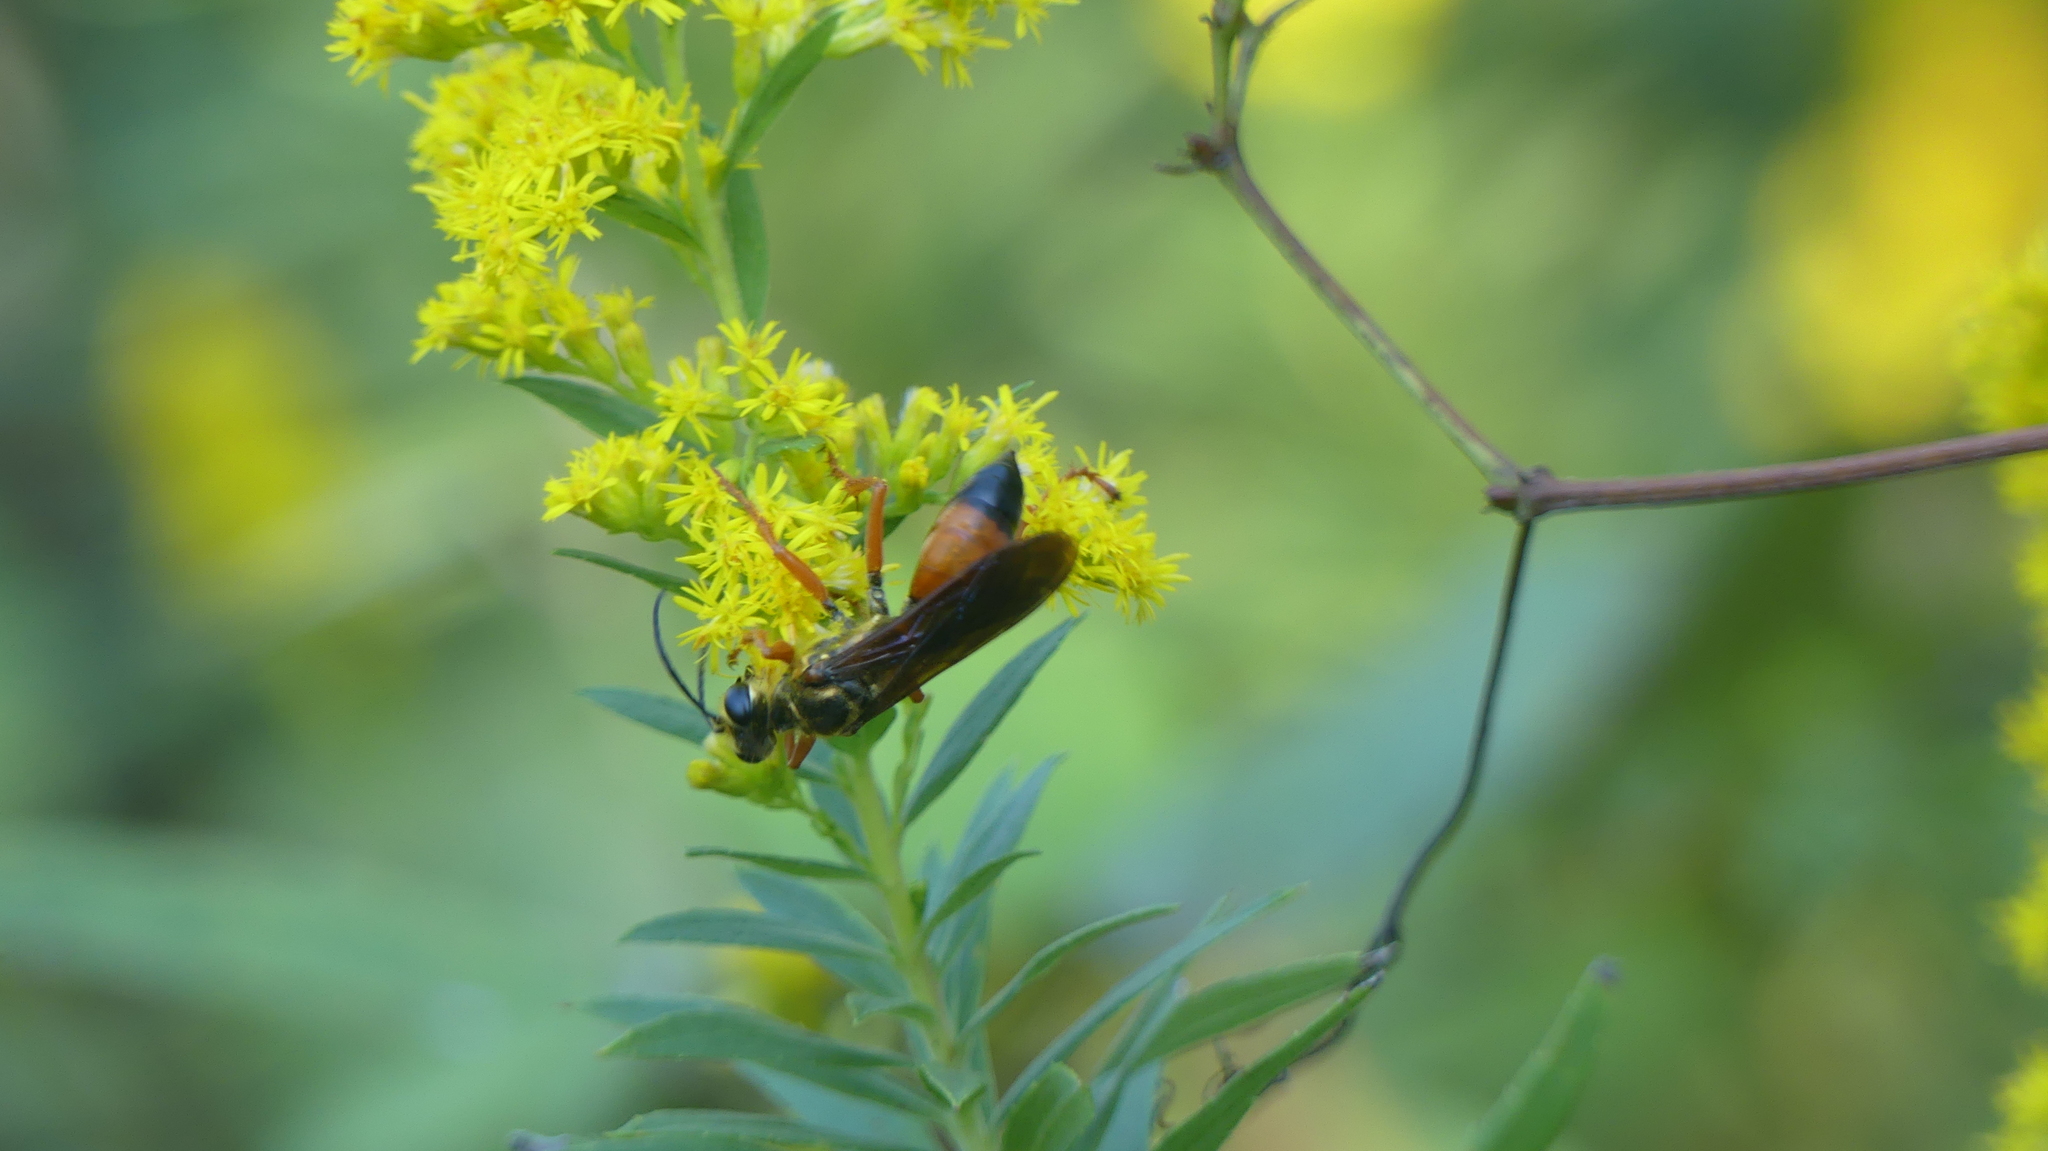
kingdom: Animalia
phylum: Arthropoda
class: Insecta
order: Hymenoptera
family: Sphecidae
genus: Sphex
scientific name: Sphex ichneumoneus
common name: Great golden digger wasp
